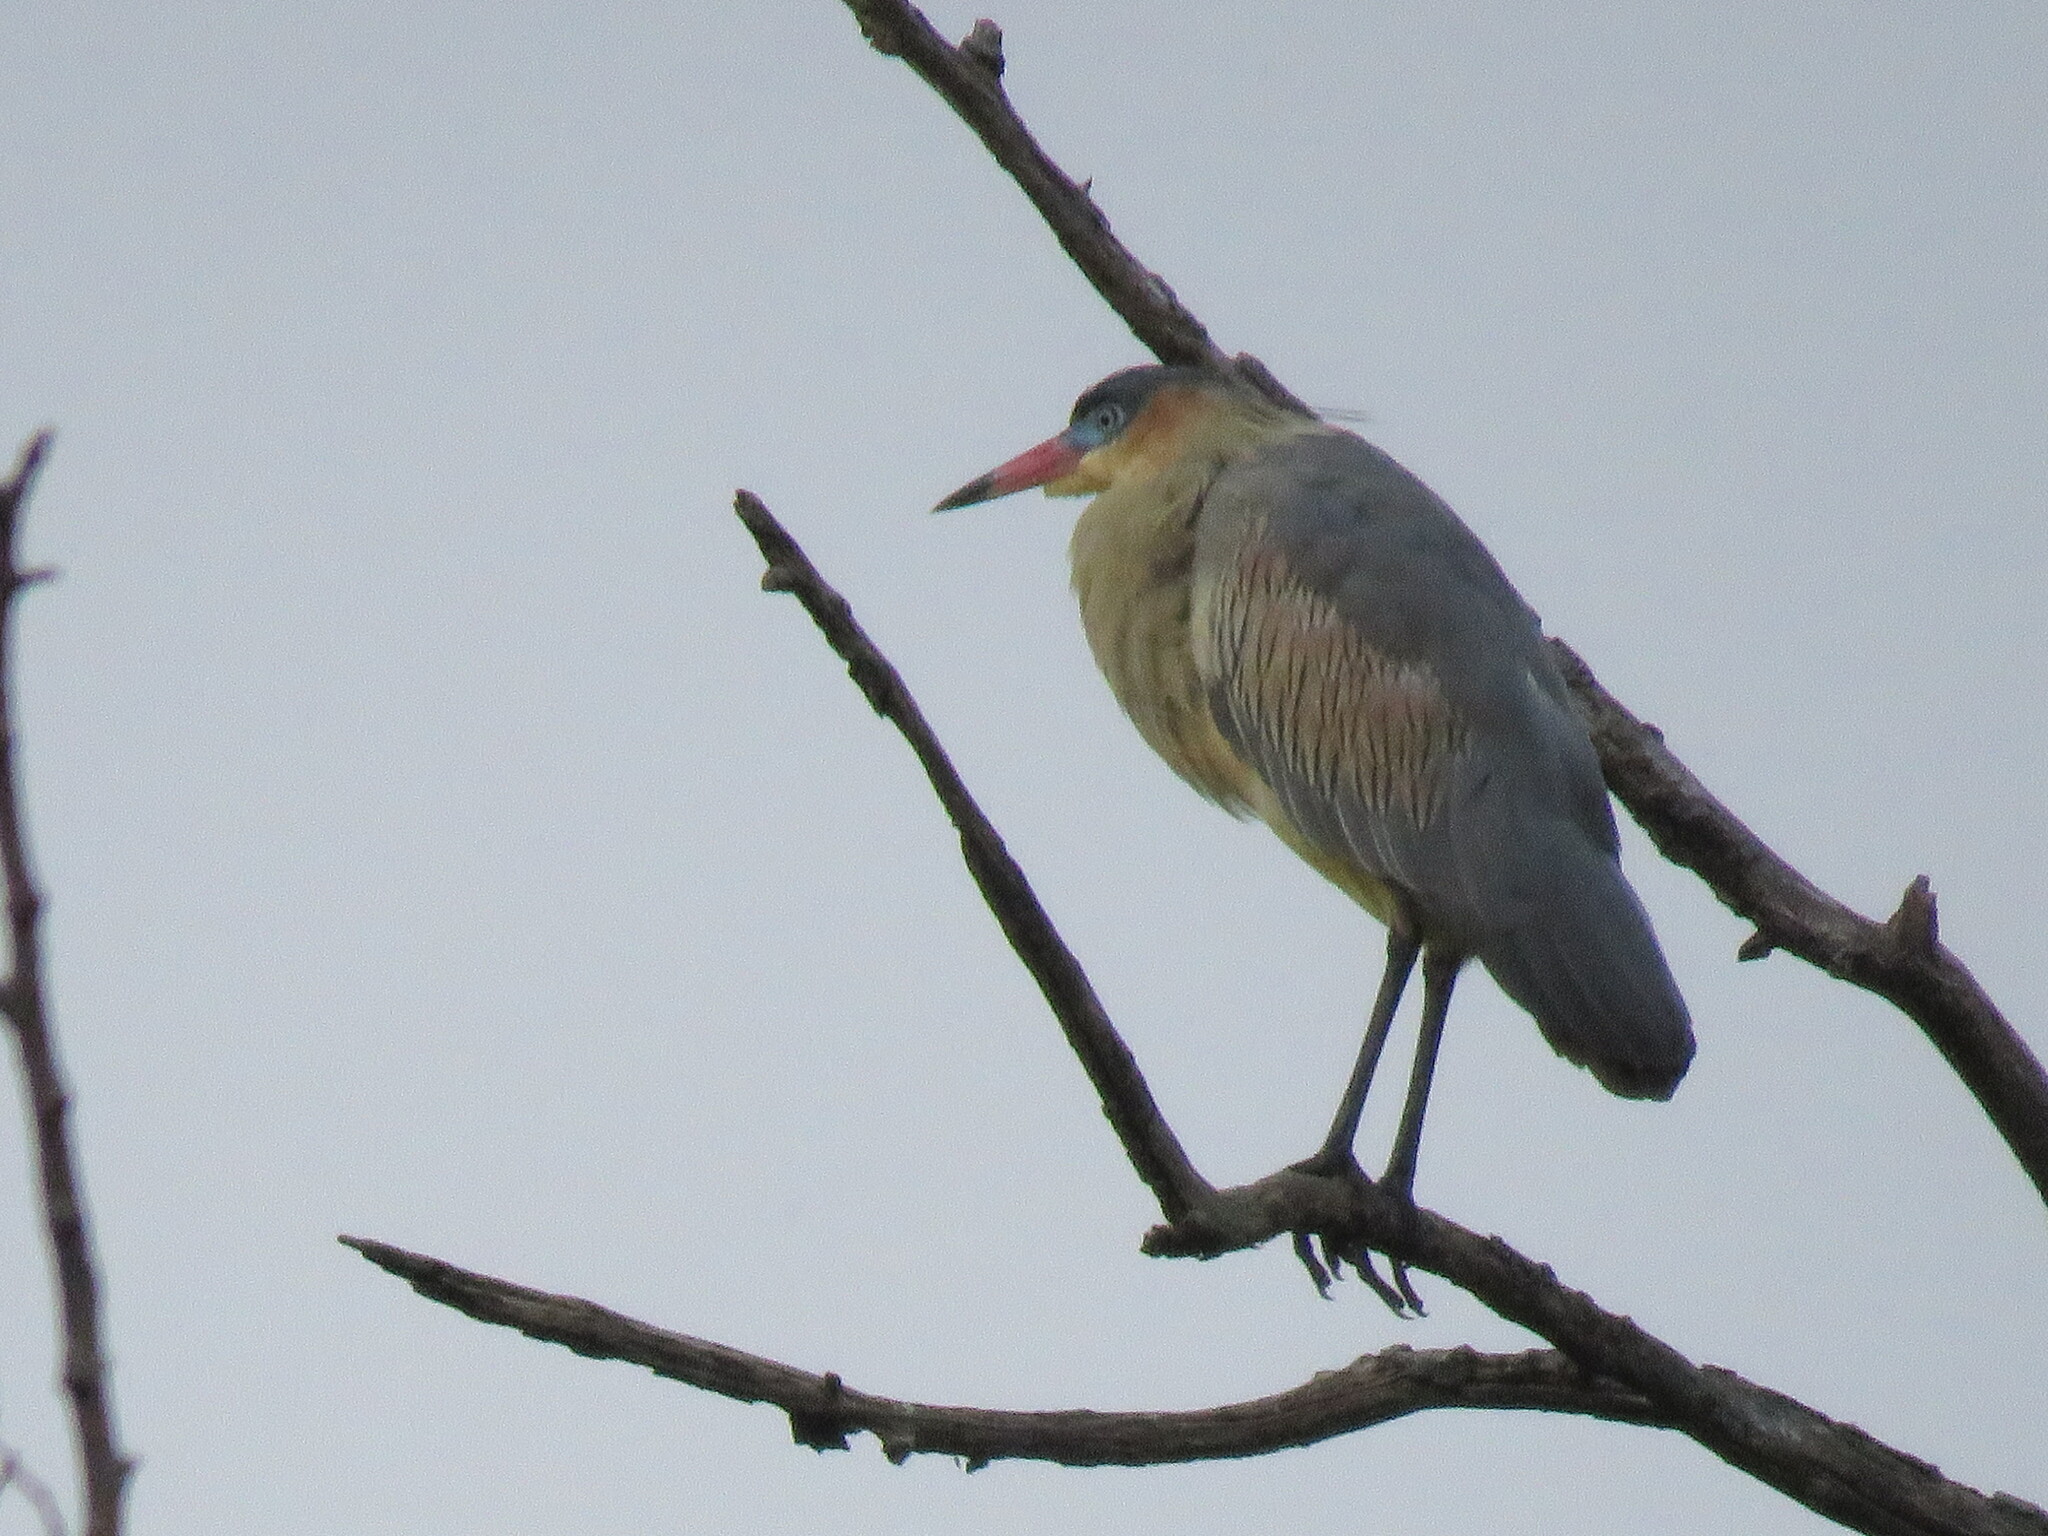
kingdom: Animalia
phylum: Chordata
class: Aves
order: Pelecaniformes
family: Ardeidae
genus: Syrigma
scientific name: Syrigma sibilatrix
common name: Whistling heron
